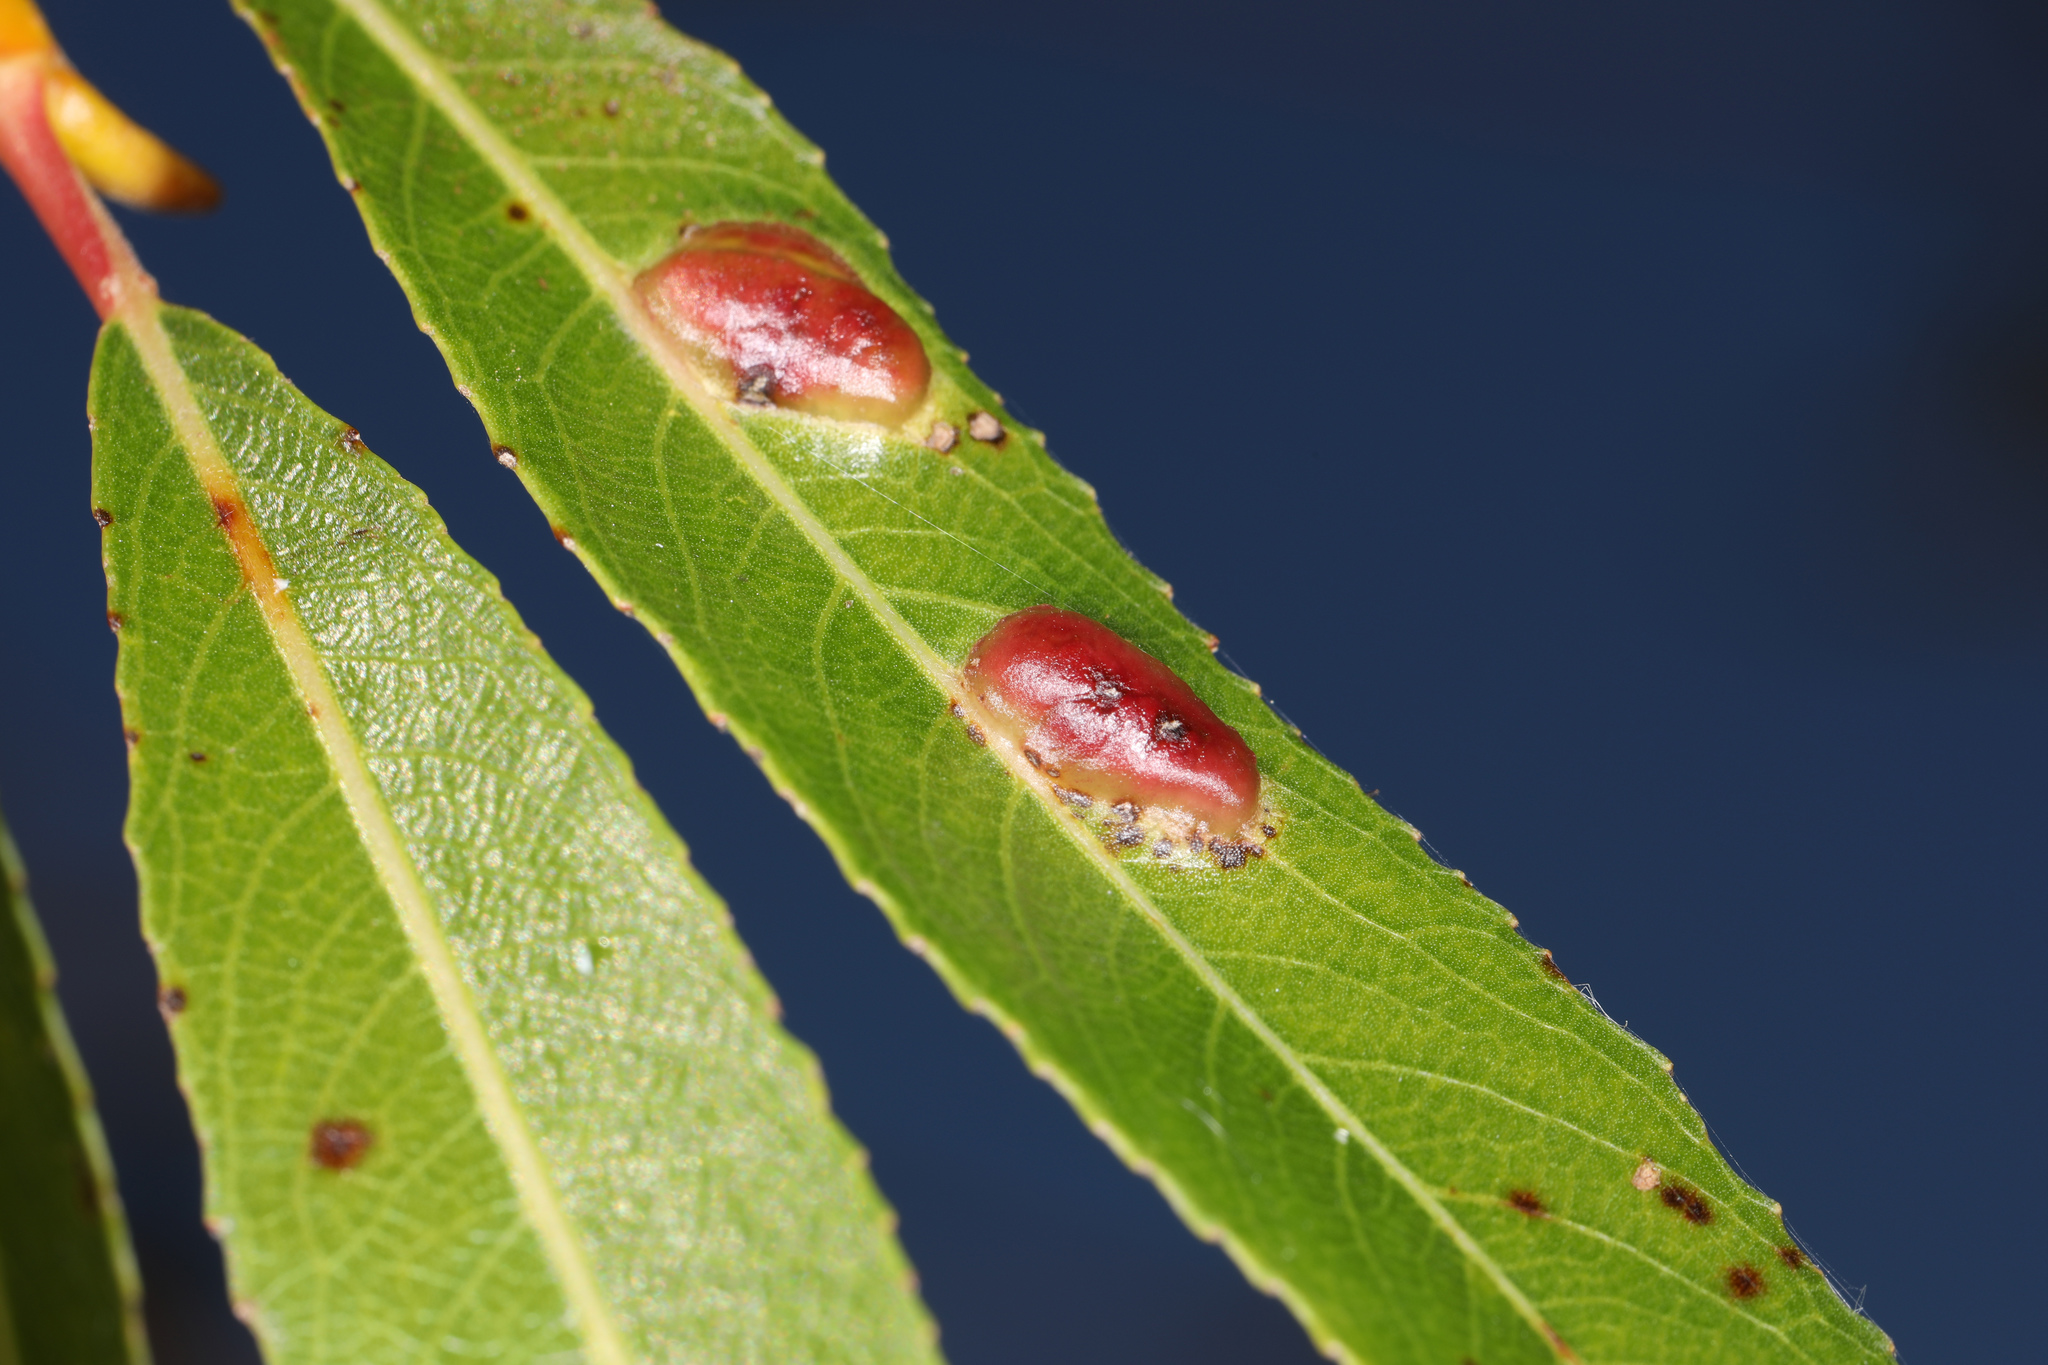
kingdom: Animalia
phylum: Arthropoda
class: Insecta
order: Hymenoptera
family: Tenthredinidae
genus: Pontania
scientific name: Pontania proxima
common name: Common sawfly
